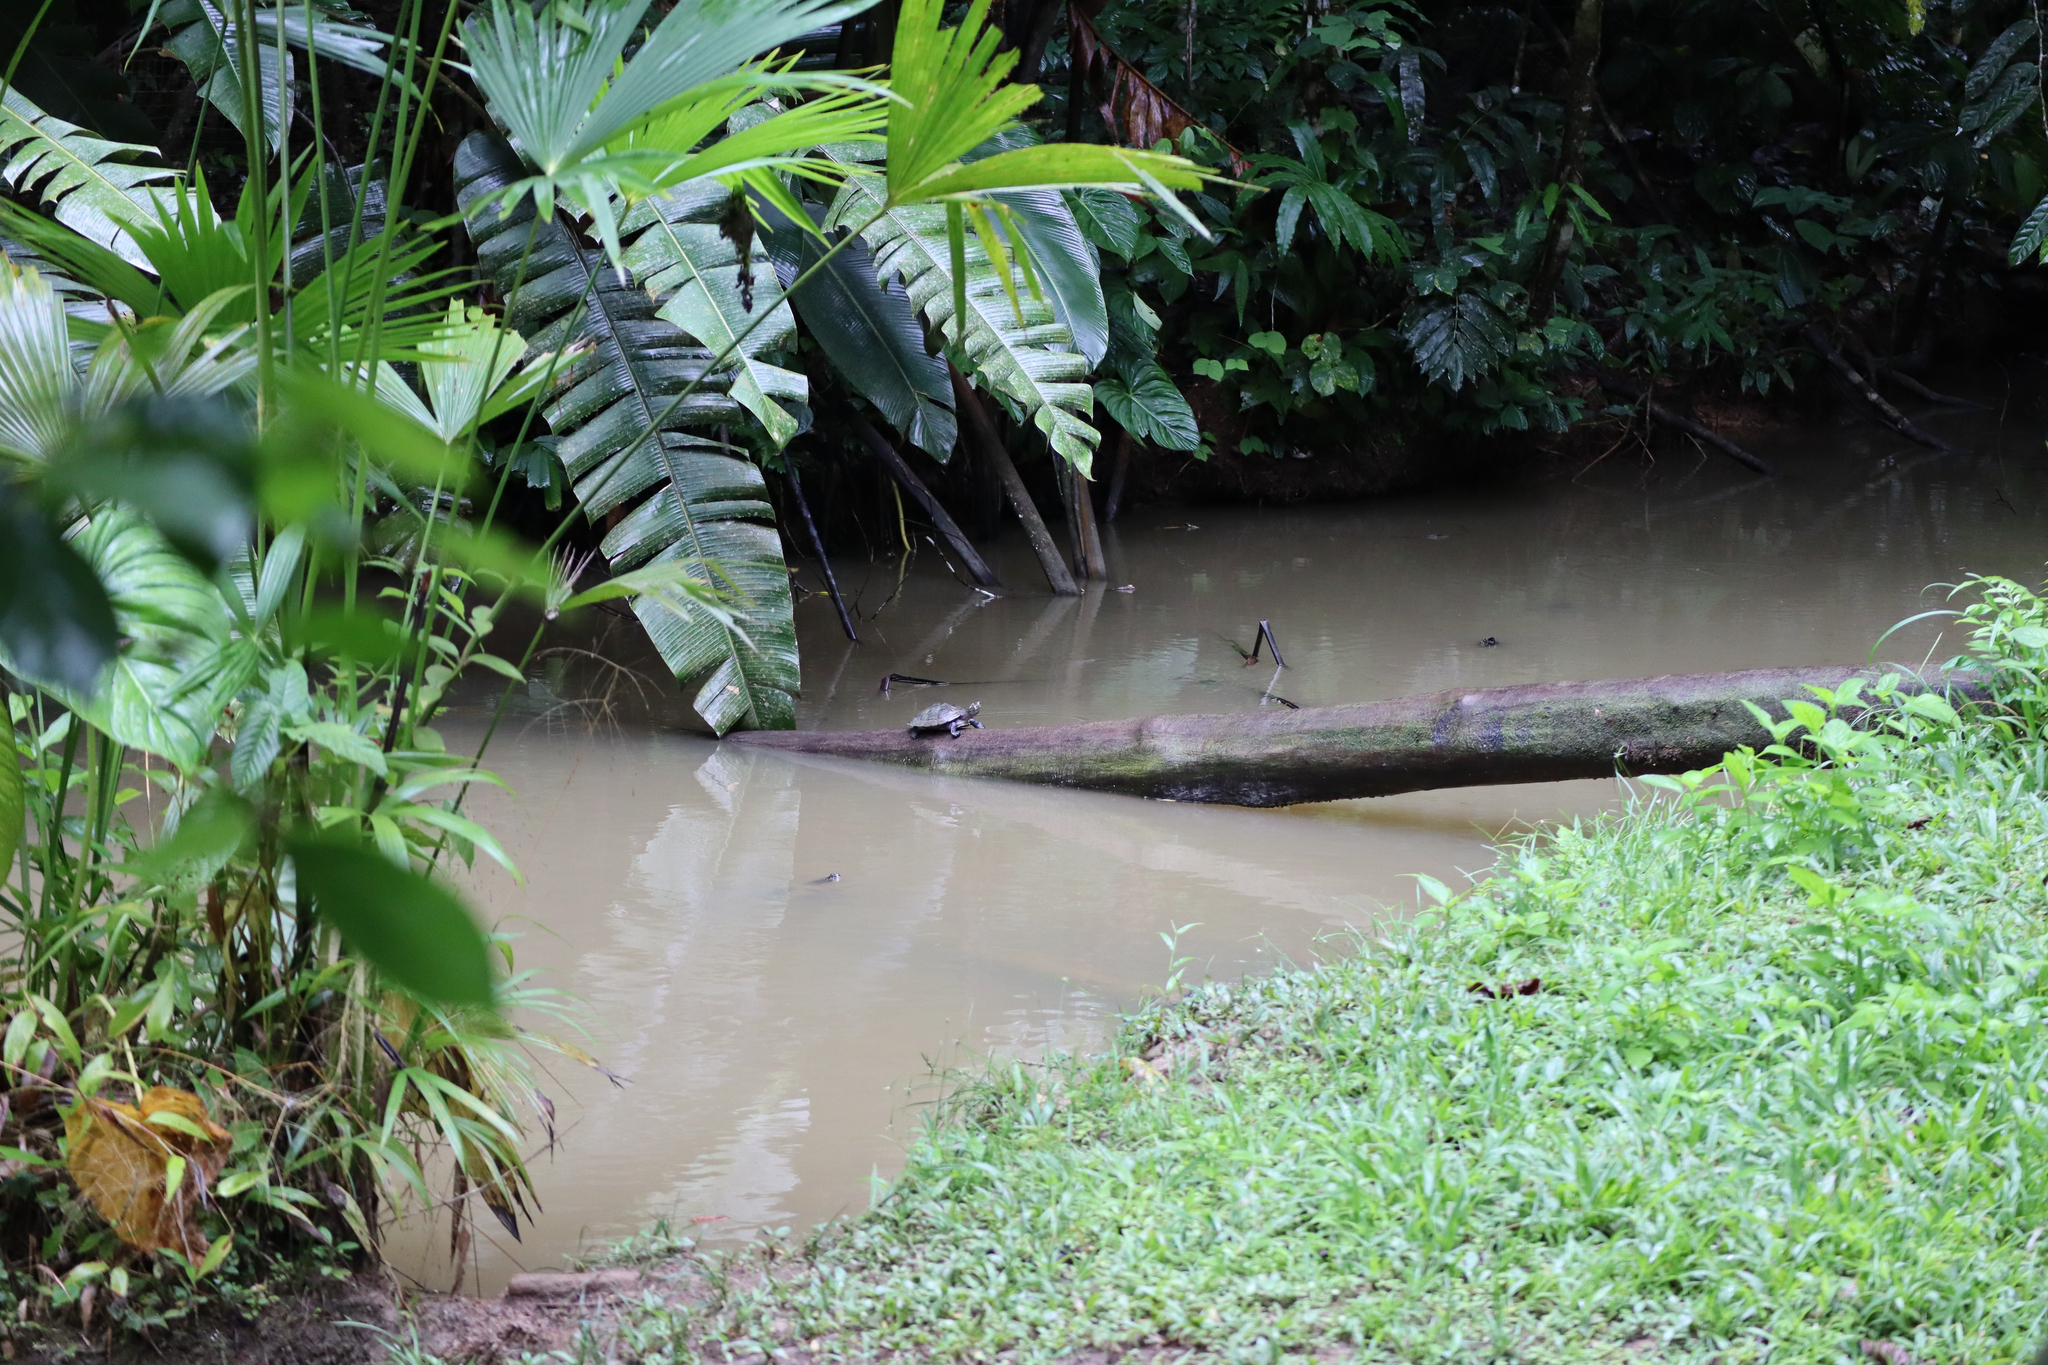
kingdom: Animalia
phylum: Chordata
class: Testudines
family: Podocnemididae
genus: Podocnemis
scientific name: Podocnemis unifilis
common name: Yellow-spotted amazon river turtle
